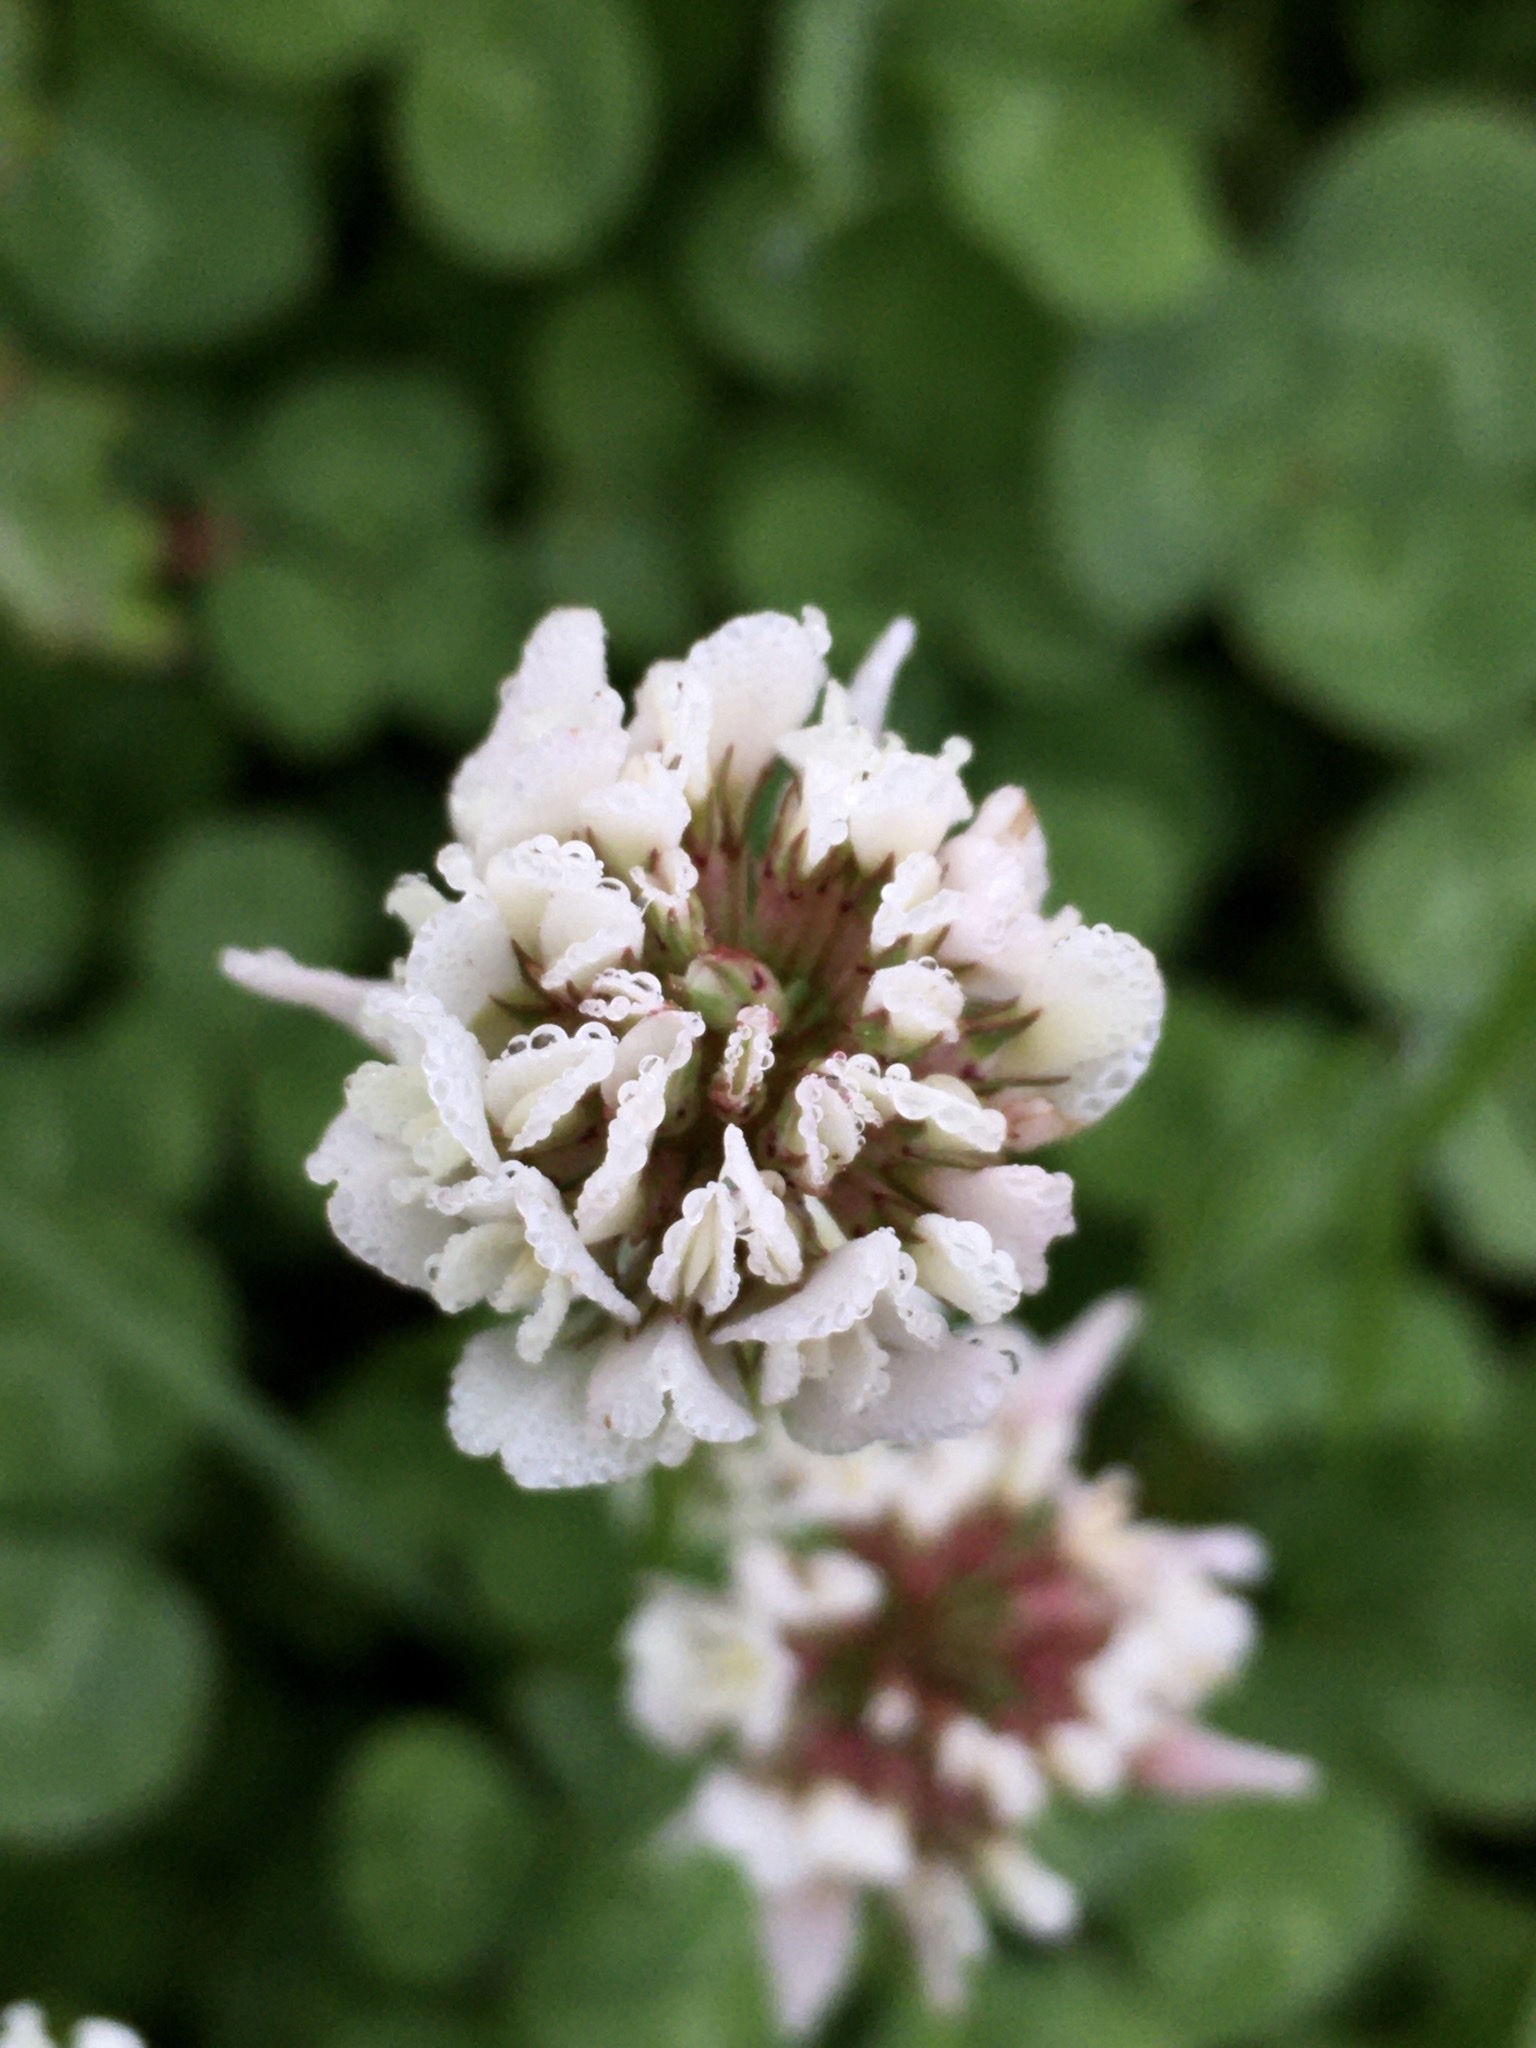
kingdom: Plantae
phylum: Tracheophyta
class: Magnoliopsida
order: Fabales
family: Fabaceae
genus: Trifolium
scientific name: Trifolium repens
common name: White clover
